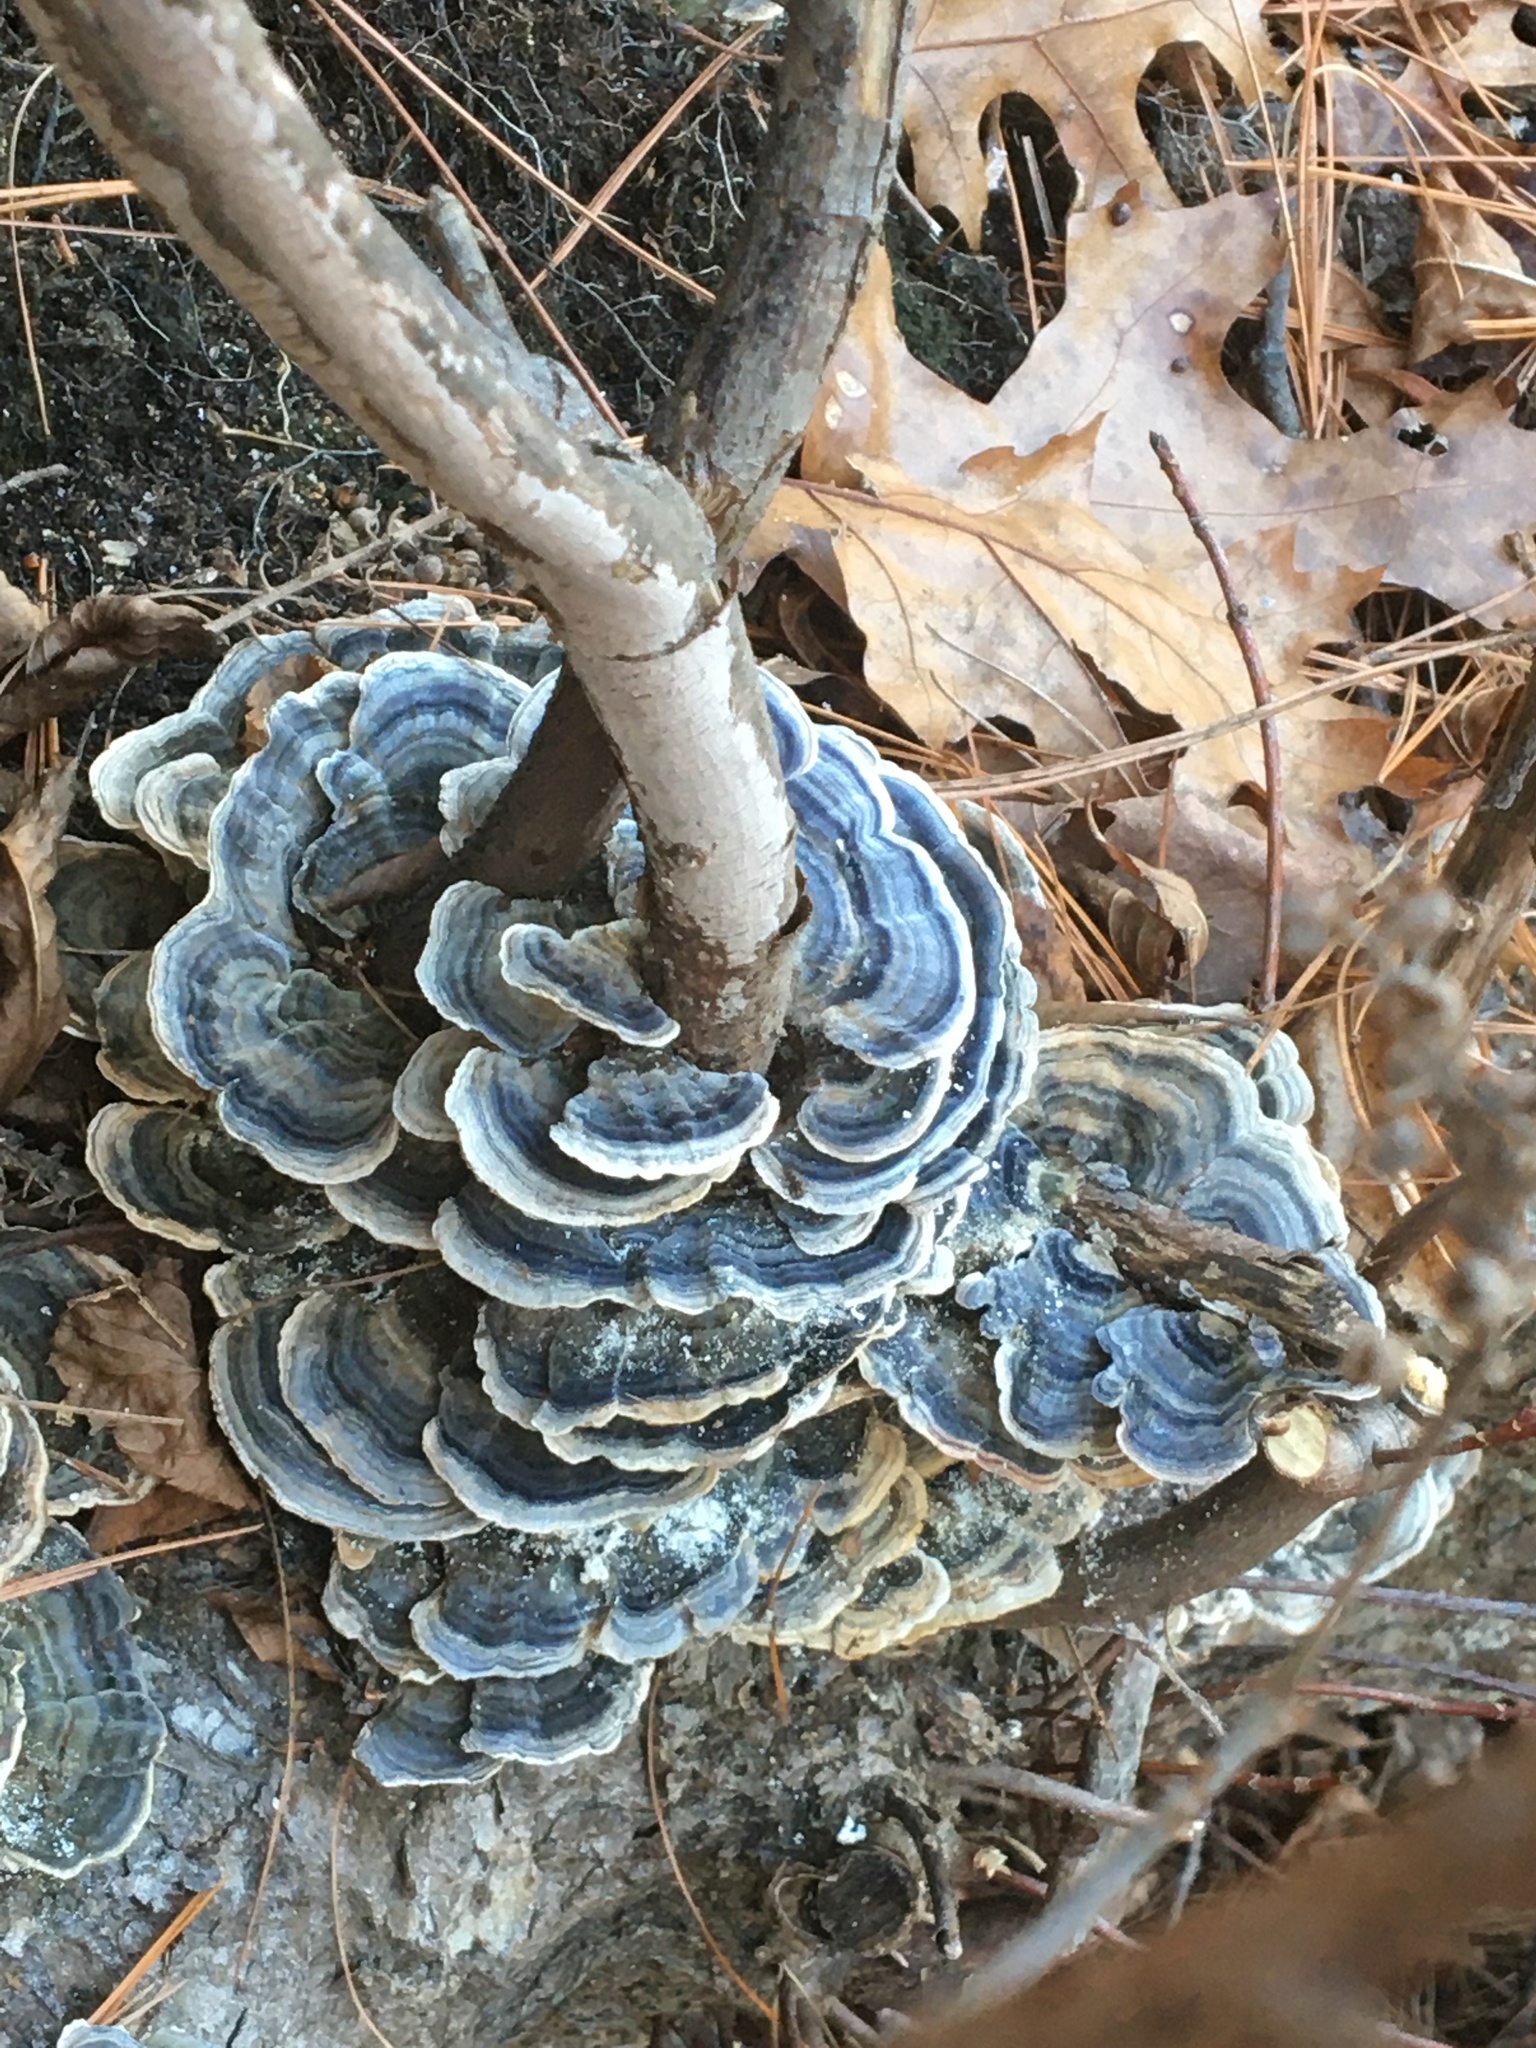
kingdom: Fungi
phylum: Basidiomycota
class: Agaricomycetes
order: Polyporales
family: Polyporaceae
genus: Trametes
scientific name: Trametes versicolor
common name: Turkeytail
